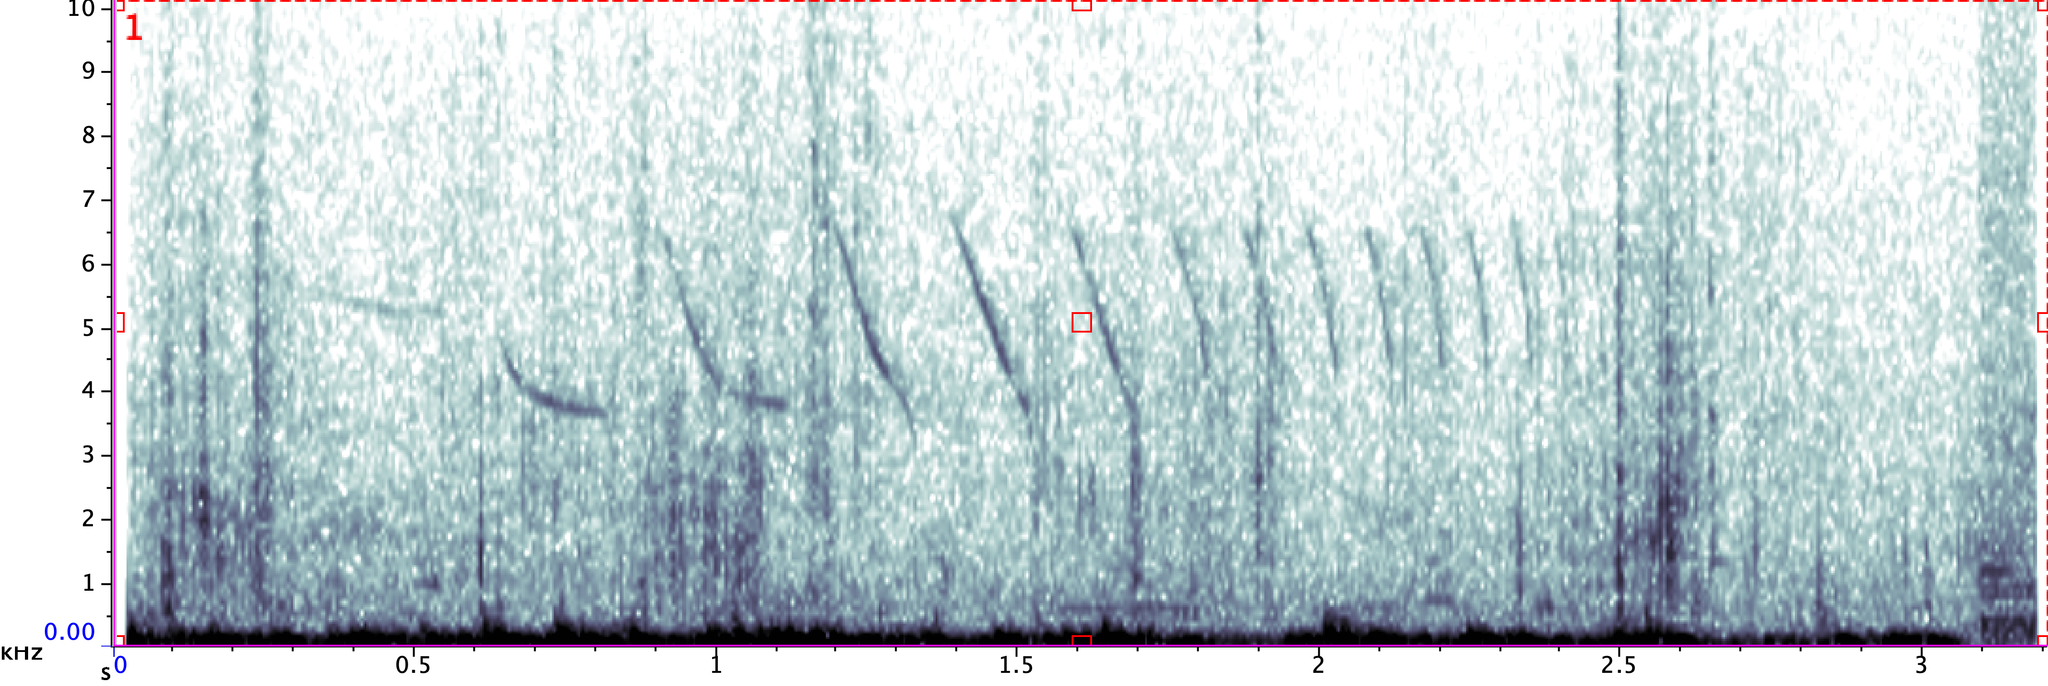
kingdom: Animalia
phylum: Chordata
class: Aves
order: Passeriformes
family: Passerellidae
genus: Spizella
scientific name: Spizella atrogularis
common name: Black-chinned sparrow
